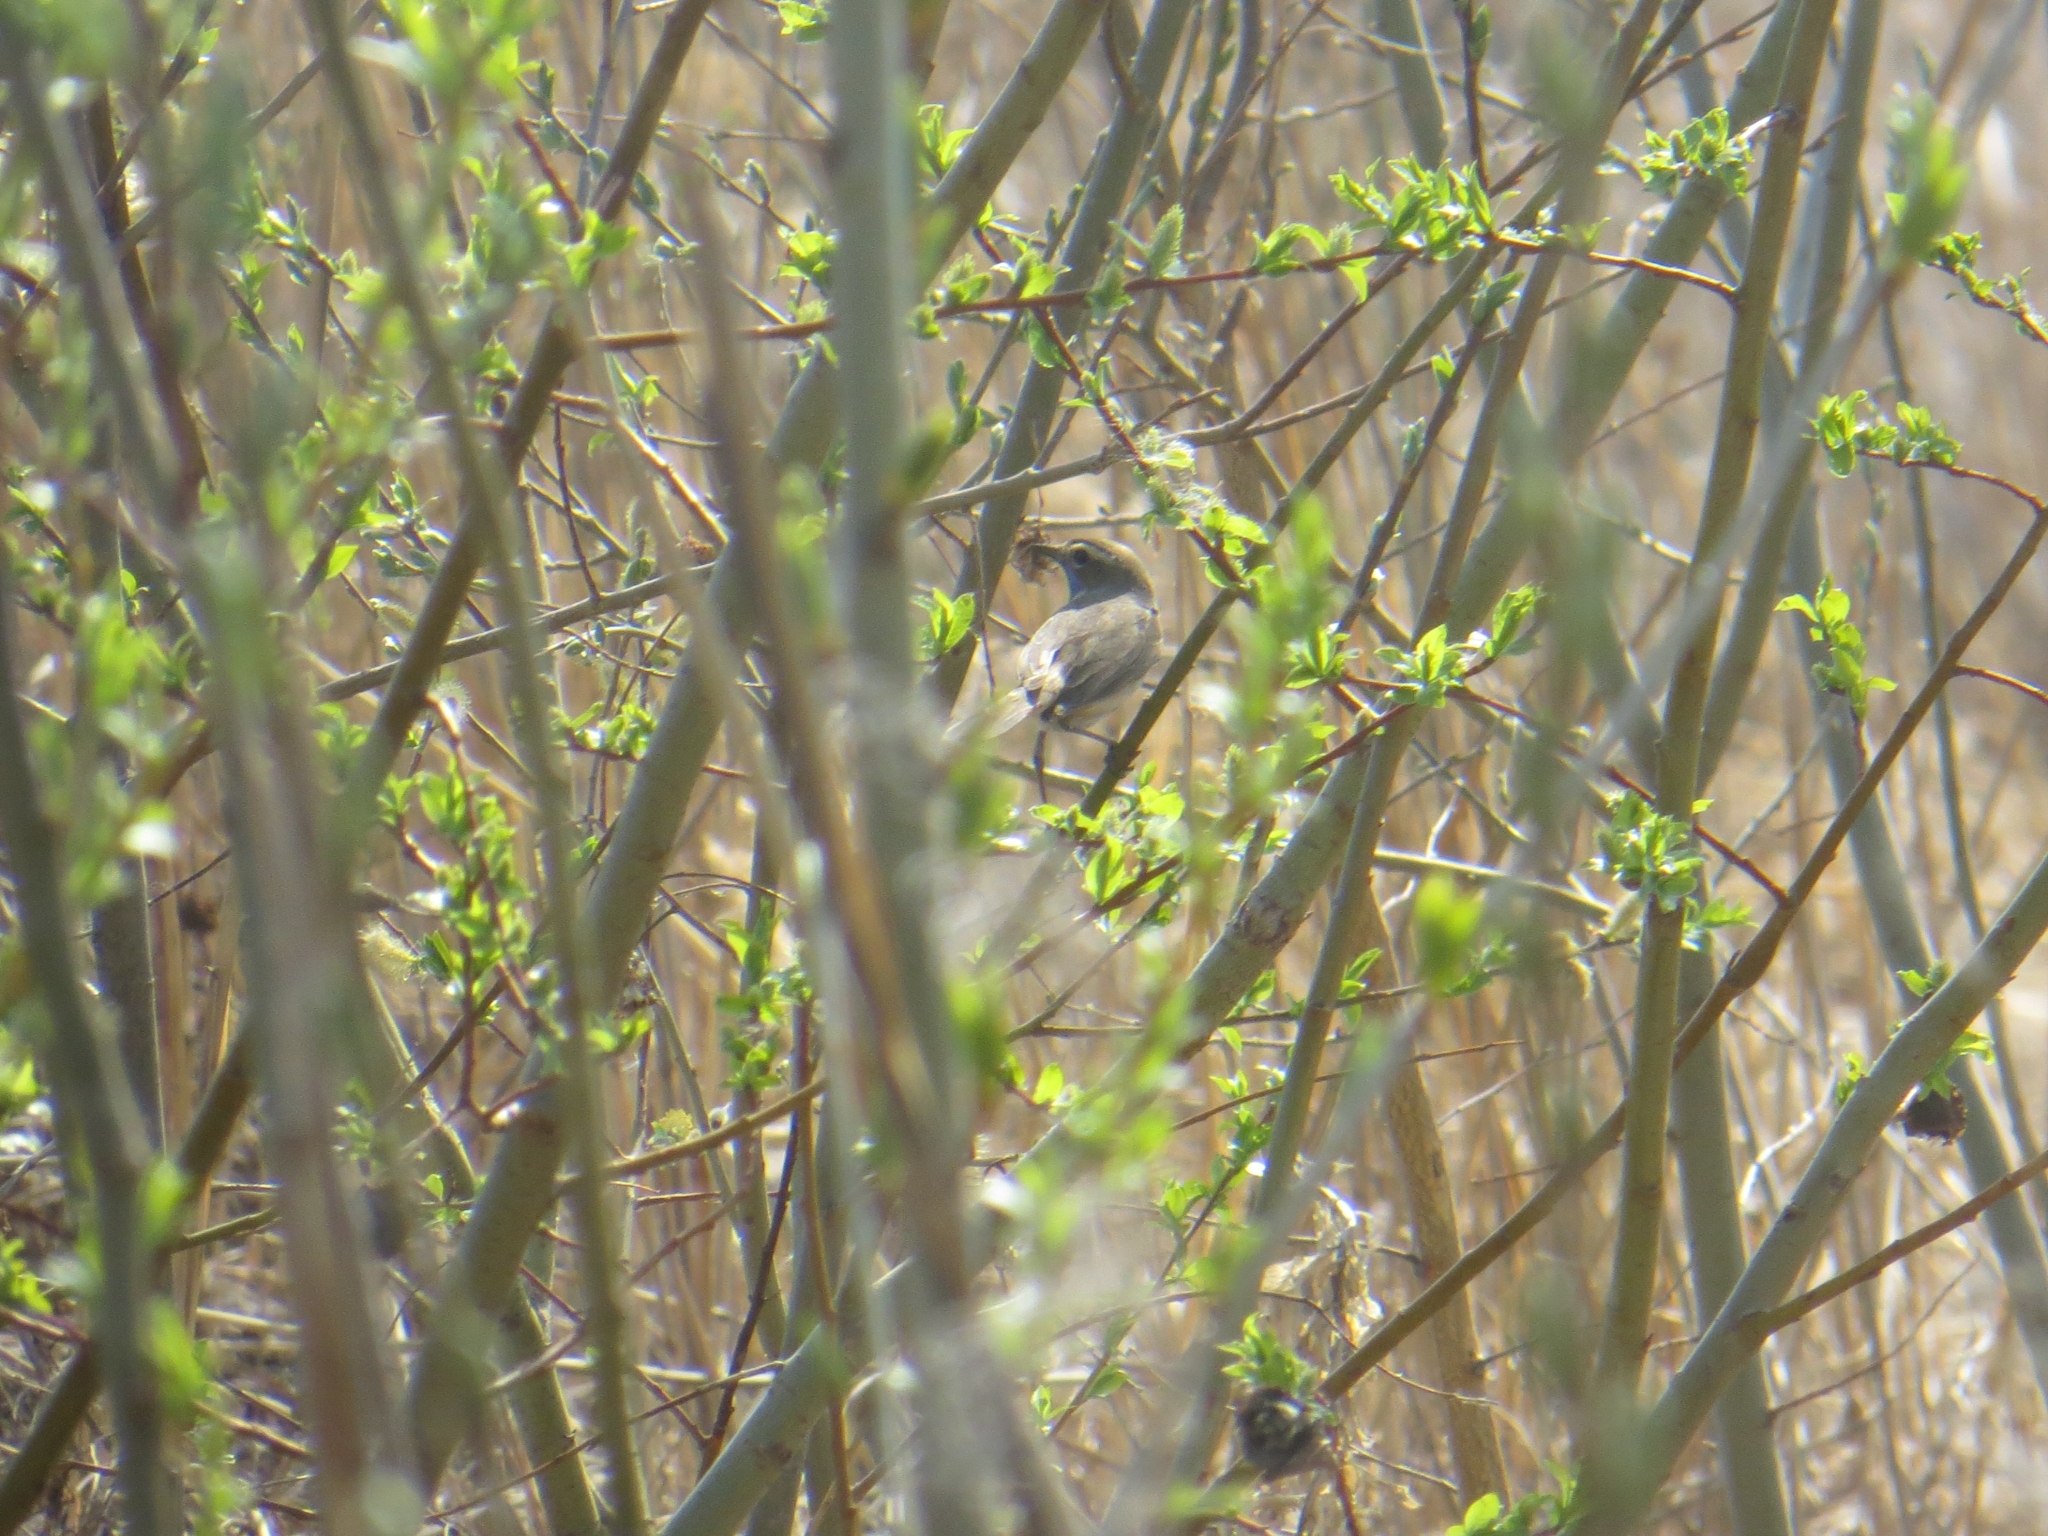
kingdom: Animalia
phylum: Chordata
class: Aves
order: Passeriformes
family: Muscicapidae
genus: Luscinia
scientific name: Luscinia svecica
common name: Bluethroat
